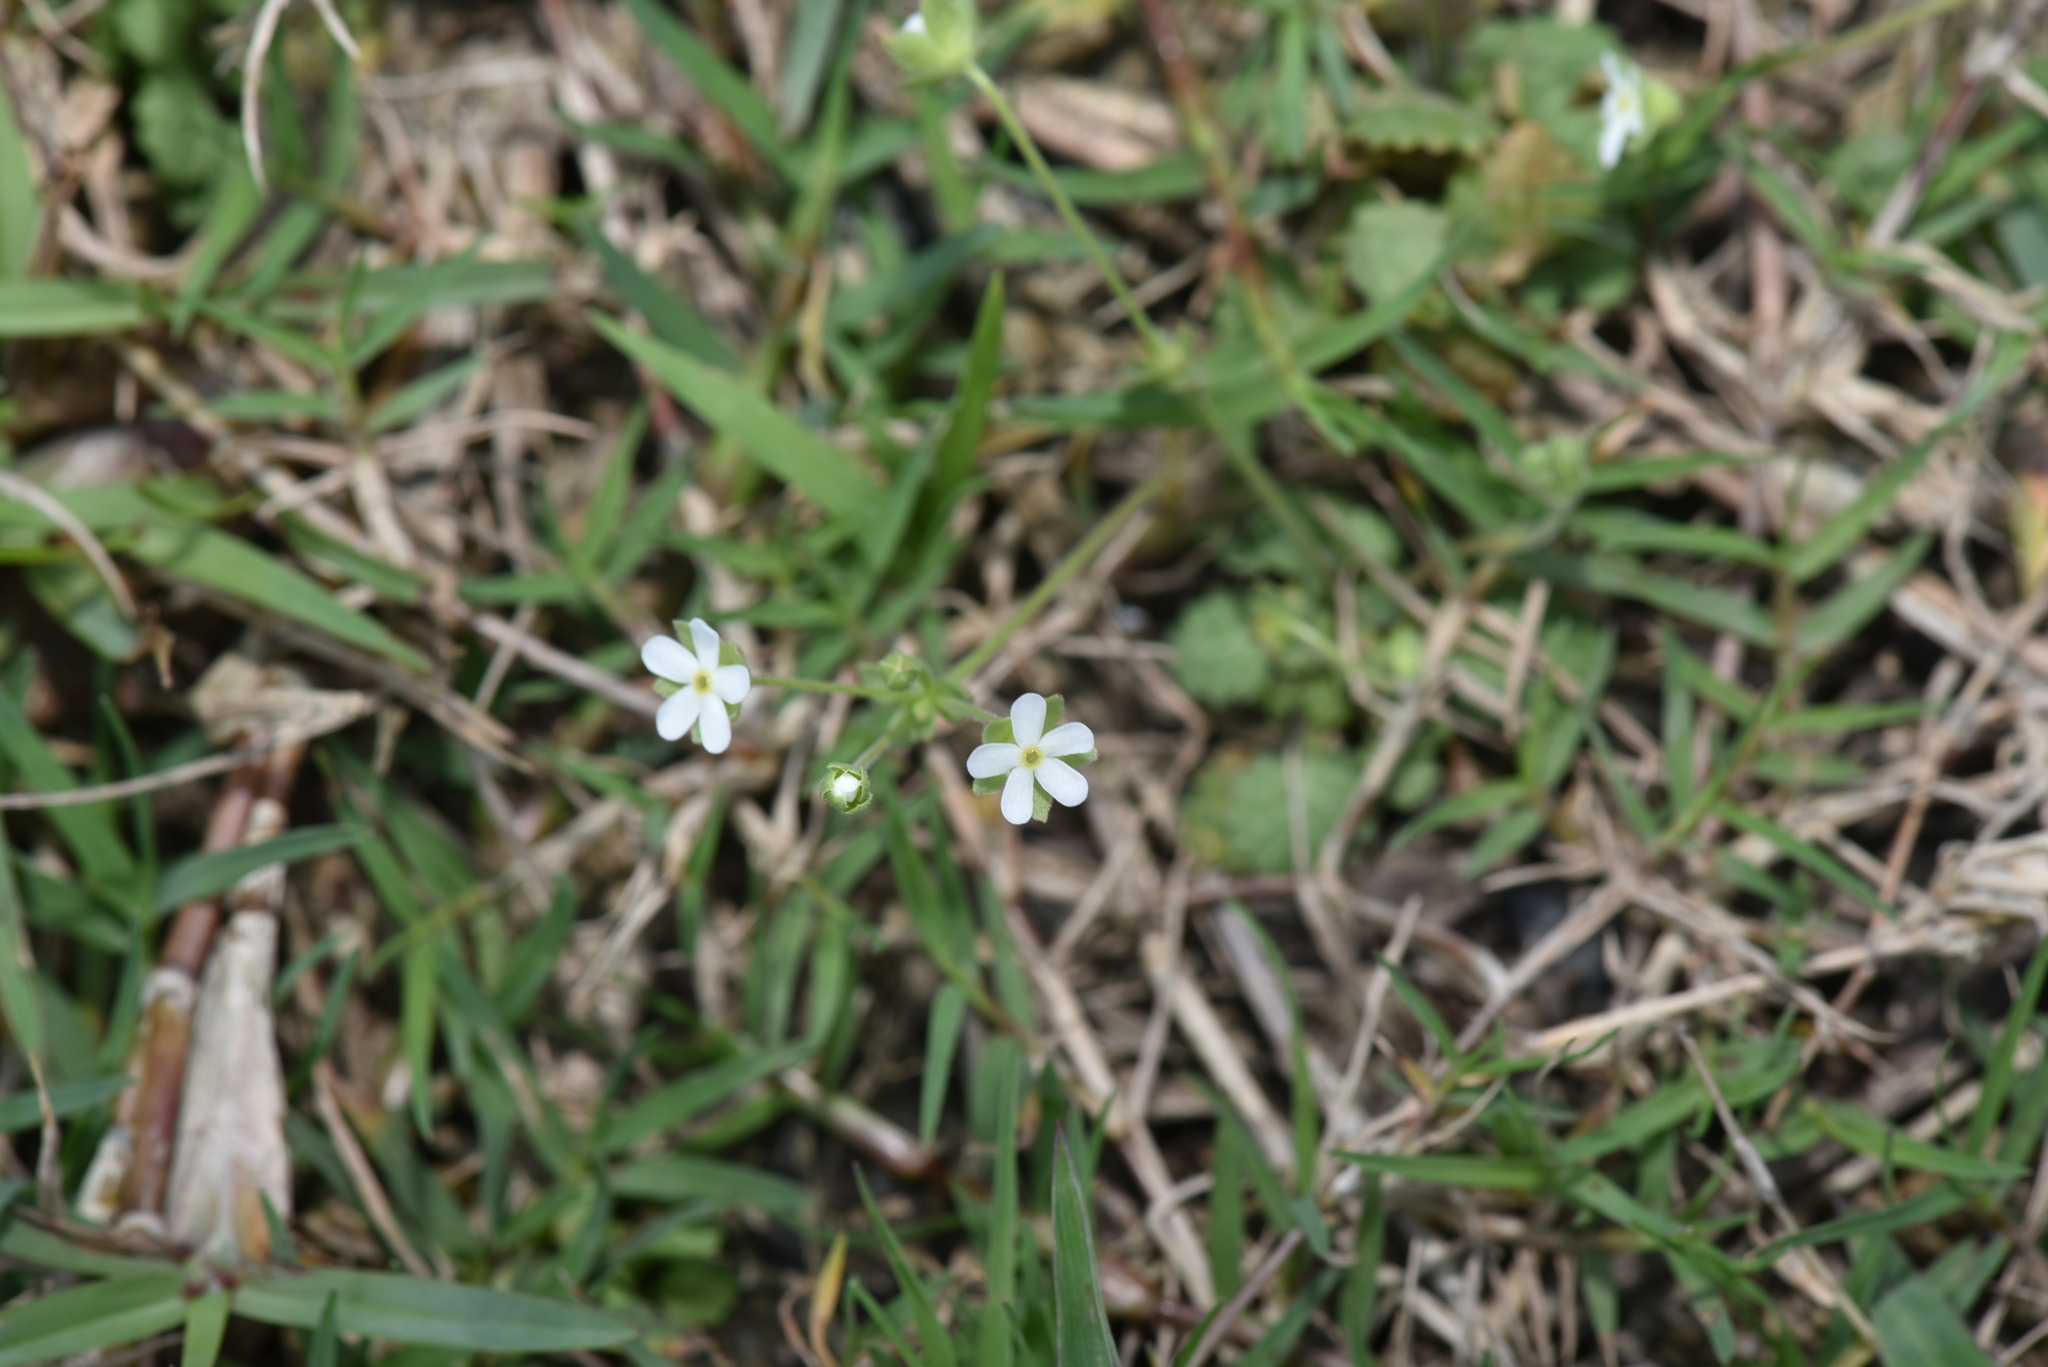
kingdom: Plantae
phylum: Tracheophyta
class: Magnoliopsida
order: Ericales
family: Primulaceae
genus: Androsace
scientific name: Androsace umbellata
